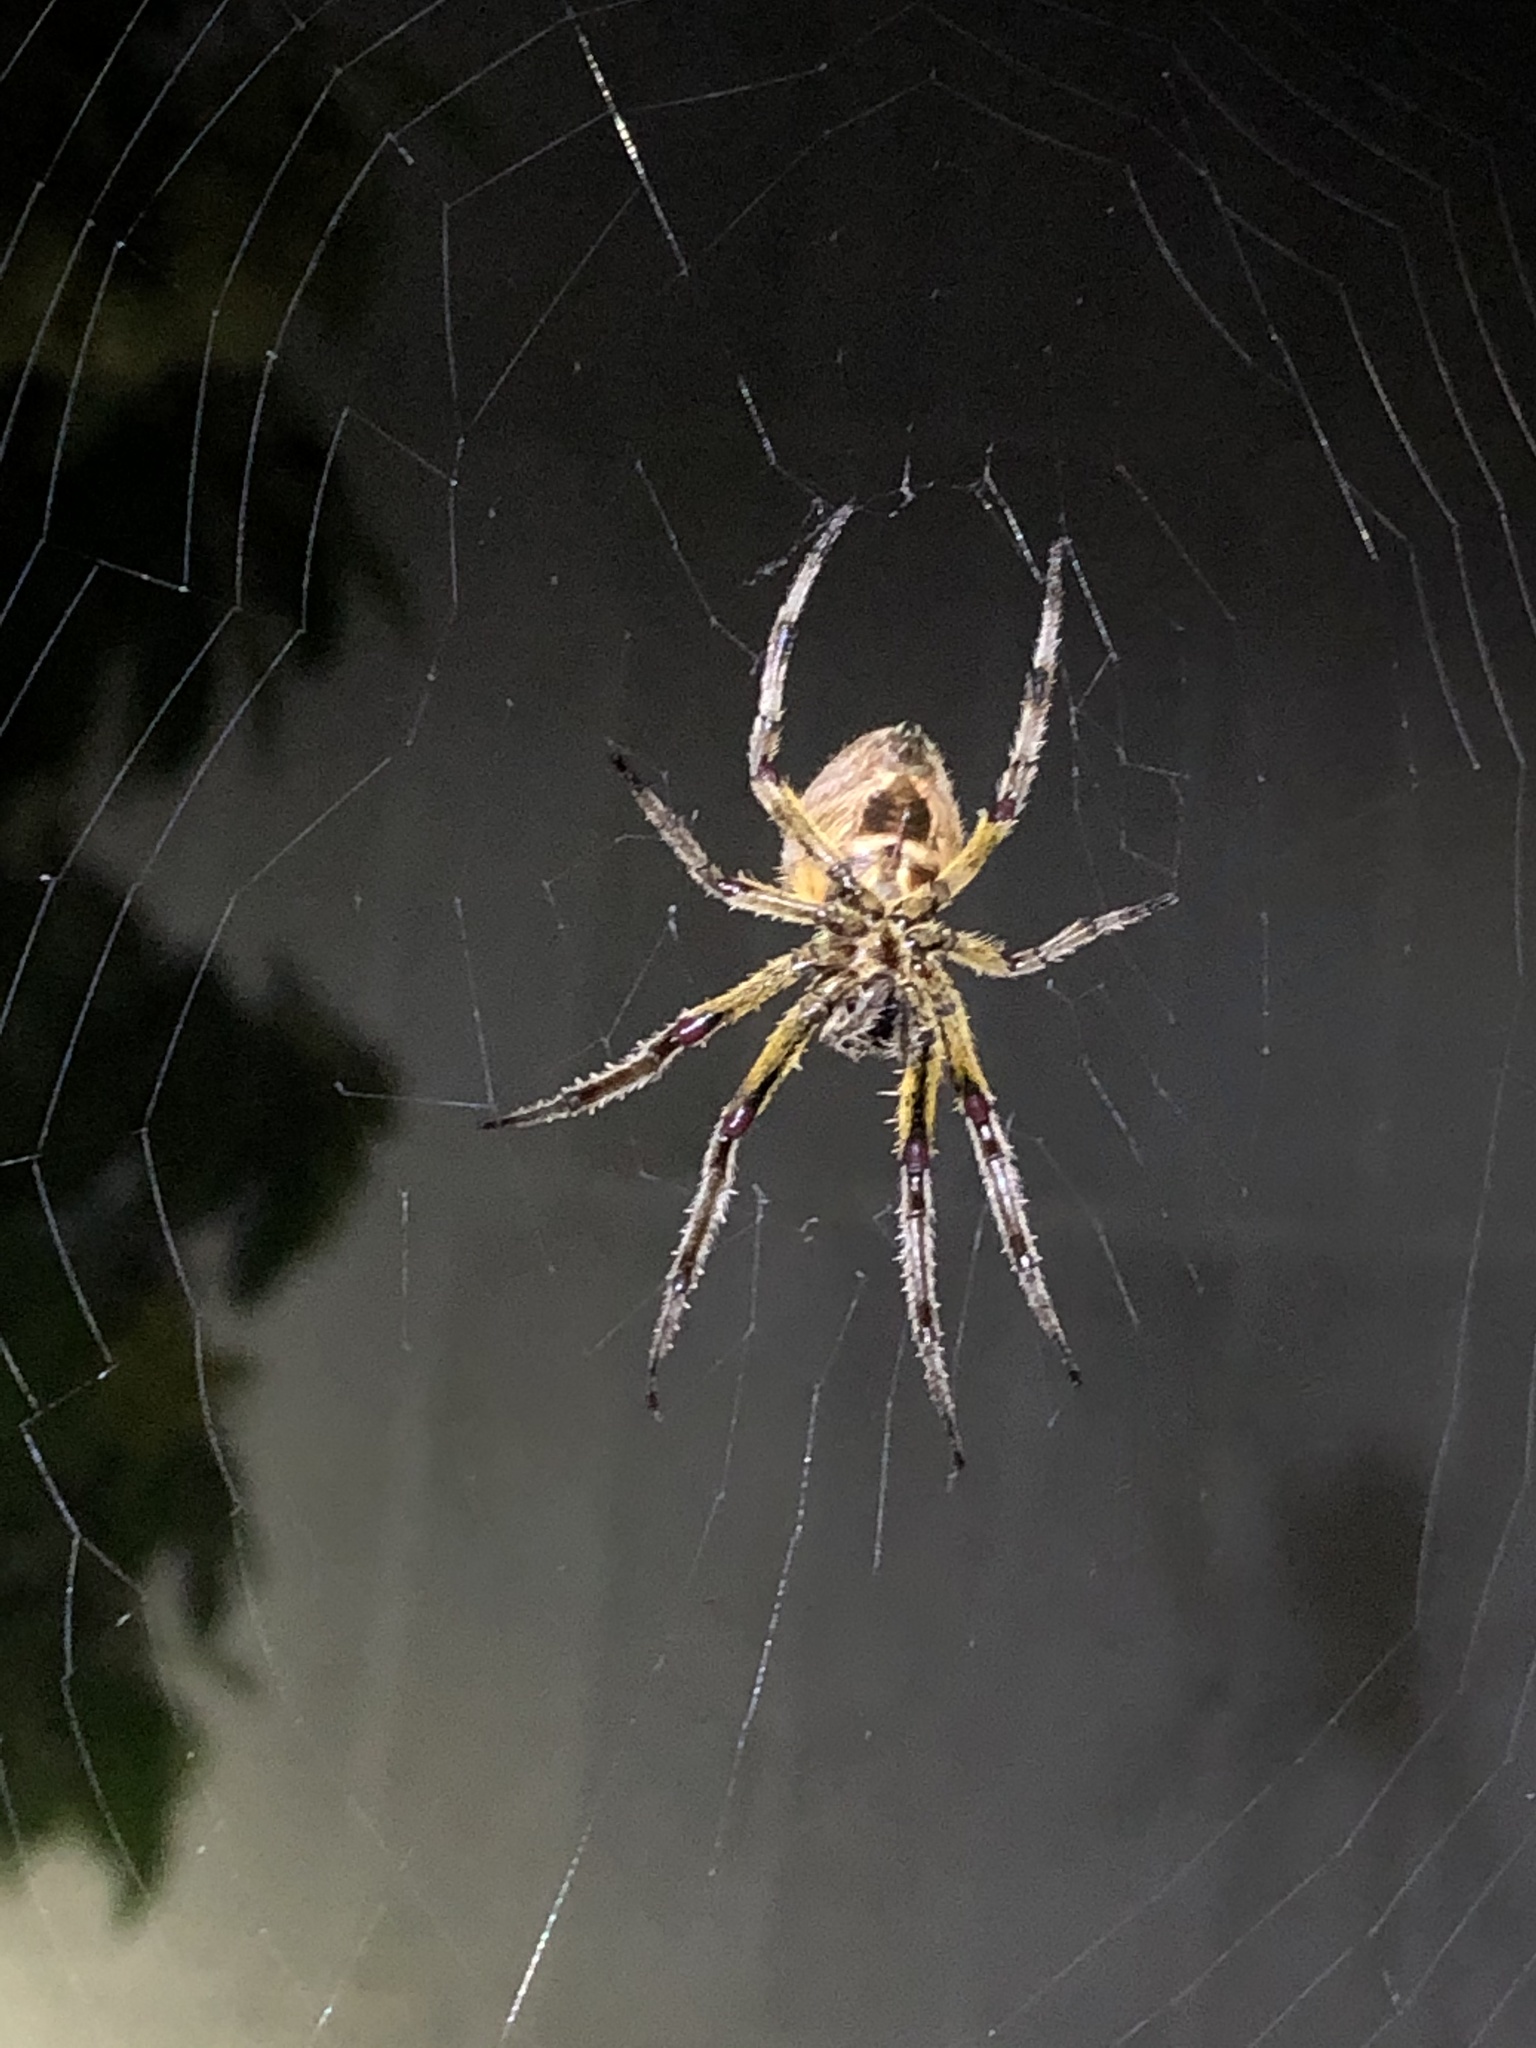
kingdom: Animalia
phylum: Arthropoda
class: Arachnida
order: Araneae
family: Araneidae
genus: Eriophora
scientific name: Eriophora ravilla
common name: Orb weavers
